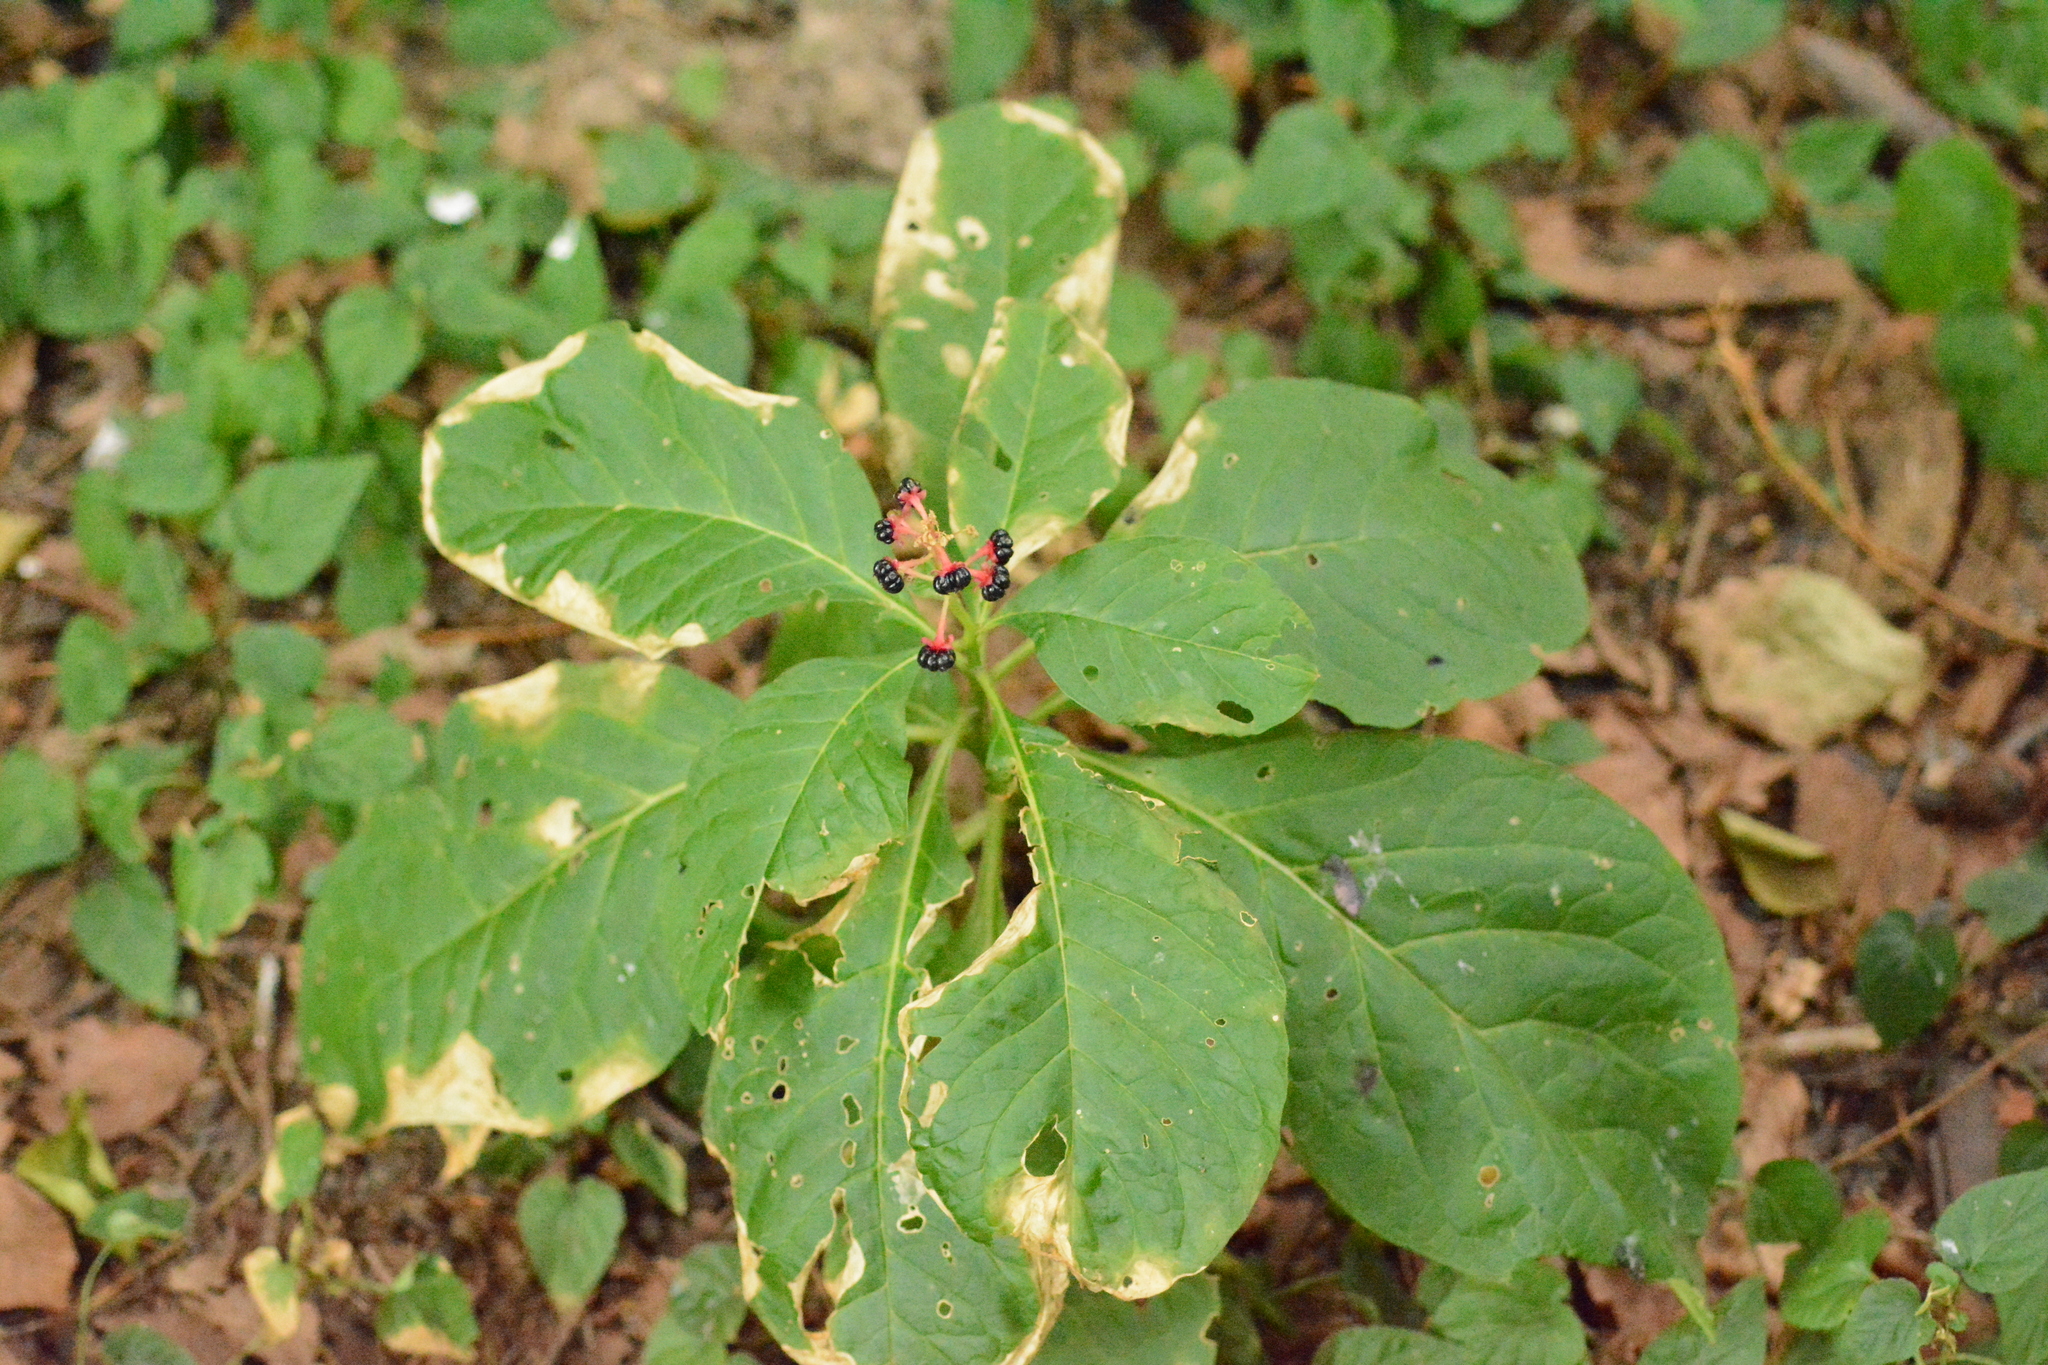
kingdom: Plantae
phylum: Tracheophyta
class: Magnoliopsida
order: Caryophyllales
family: Phytolaccaceae
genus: Phytolacca
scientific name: Phytolacca acinosa
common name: Indian pokeweed
